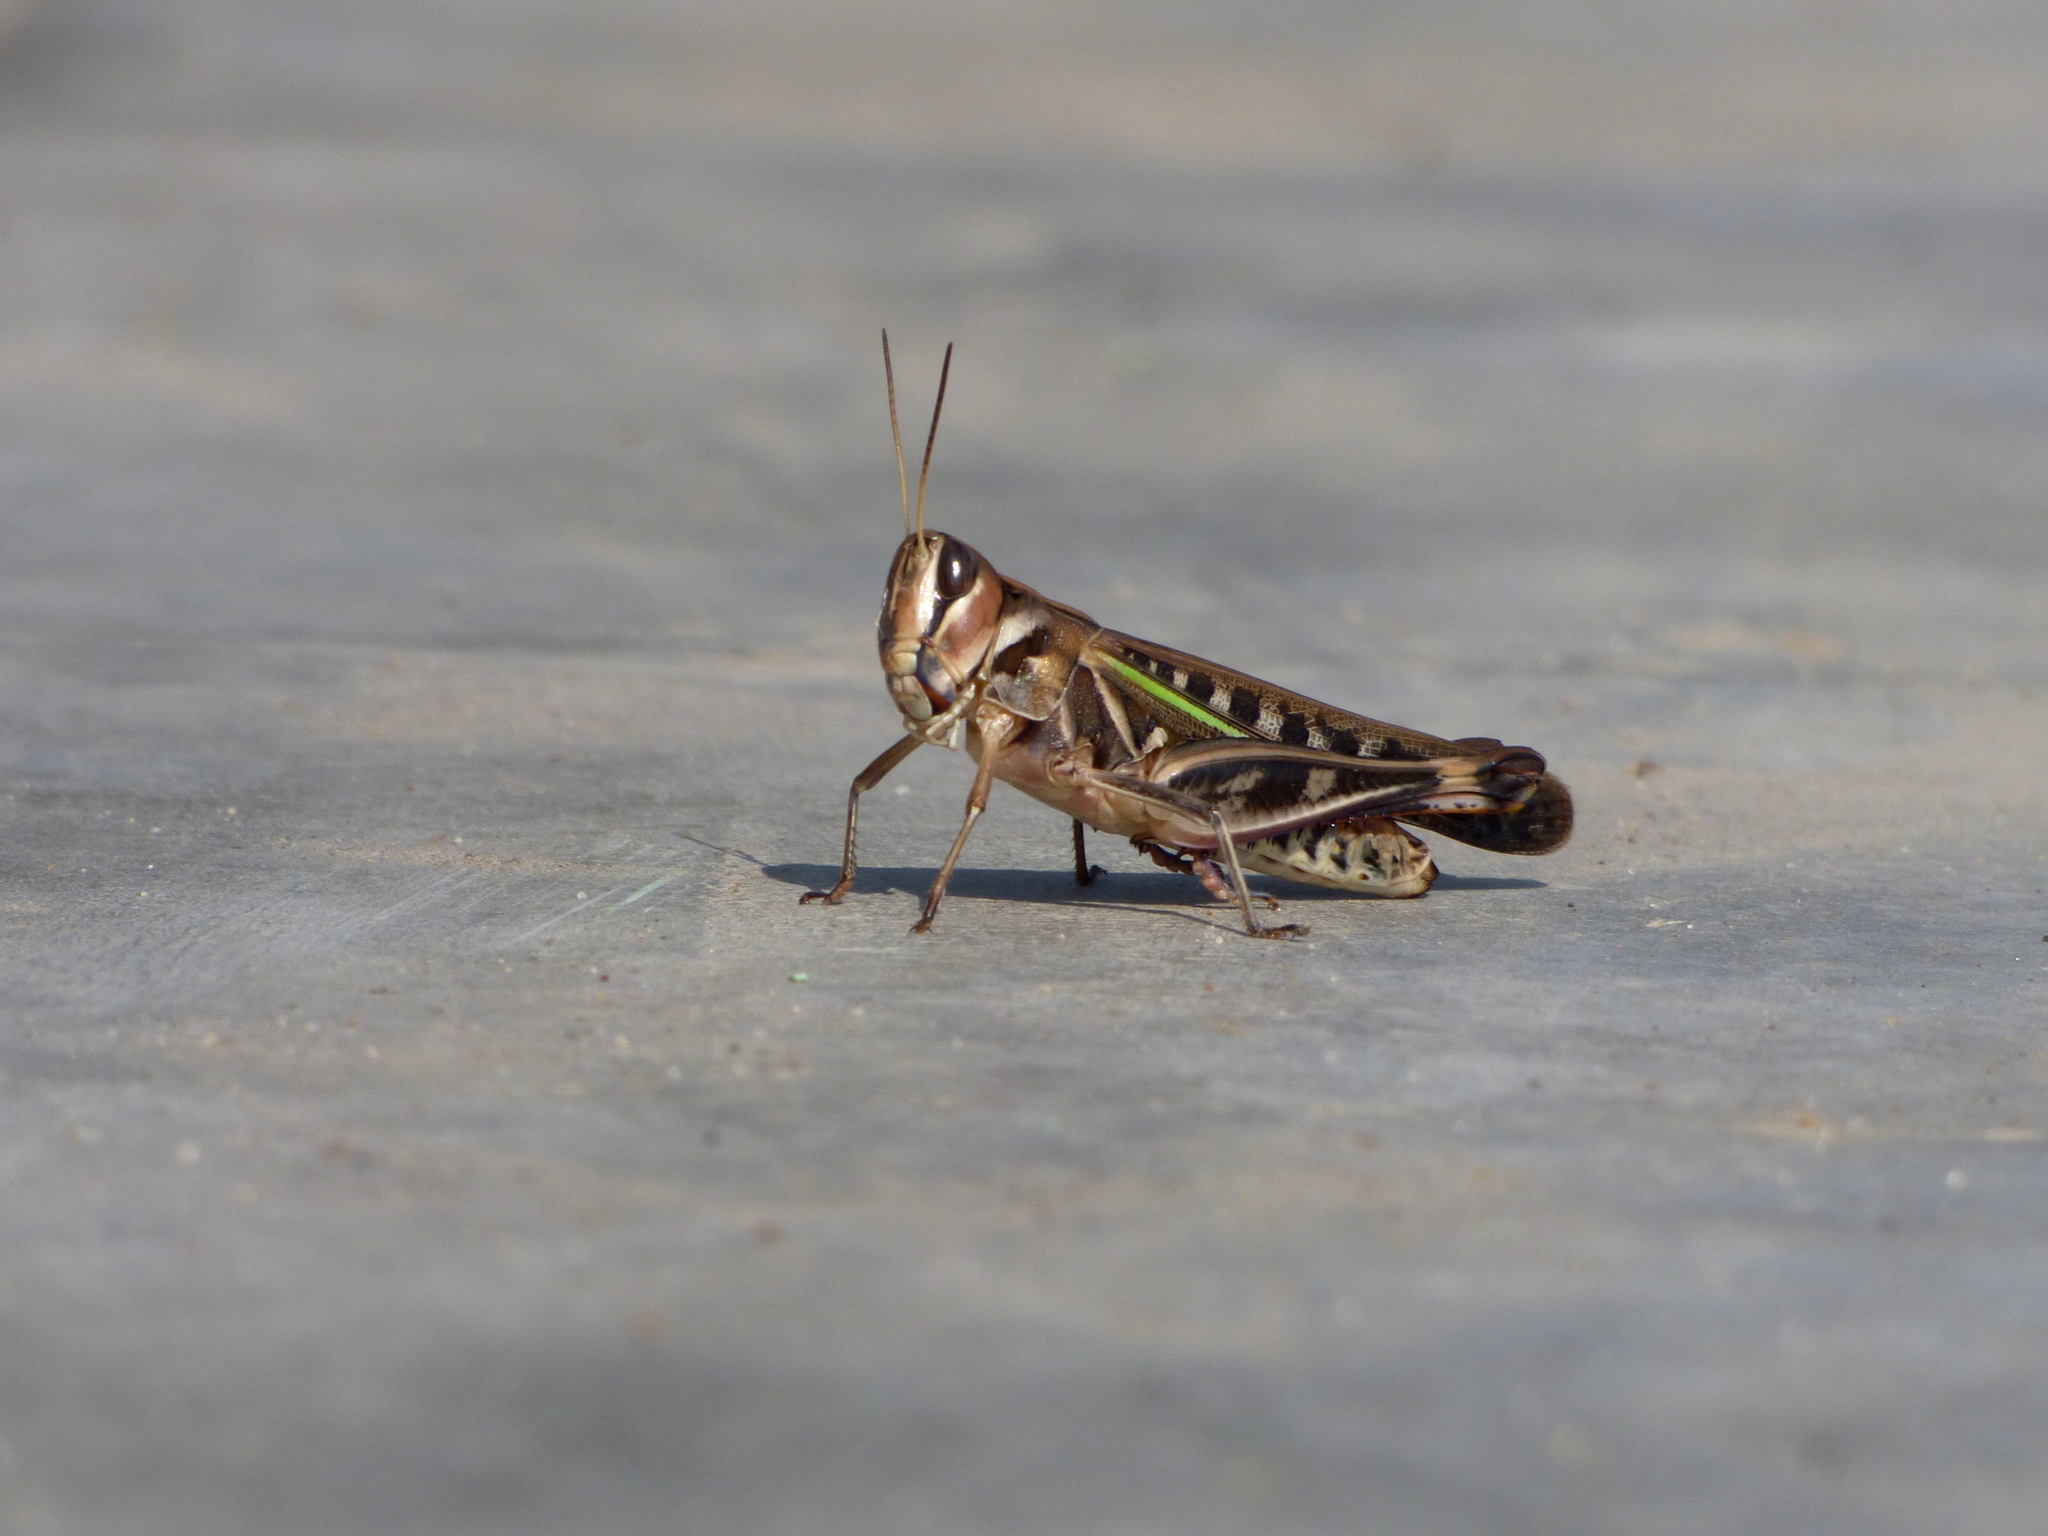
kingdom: Animalia
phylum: Arthropoda
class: Insecta
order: Orthoptera
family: Acrididae
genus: Rhammatocerus
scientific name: Rhammatocerus pictus
